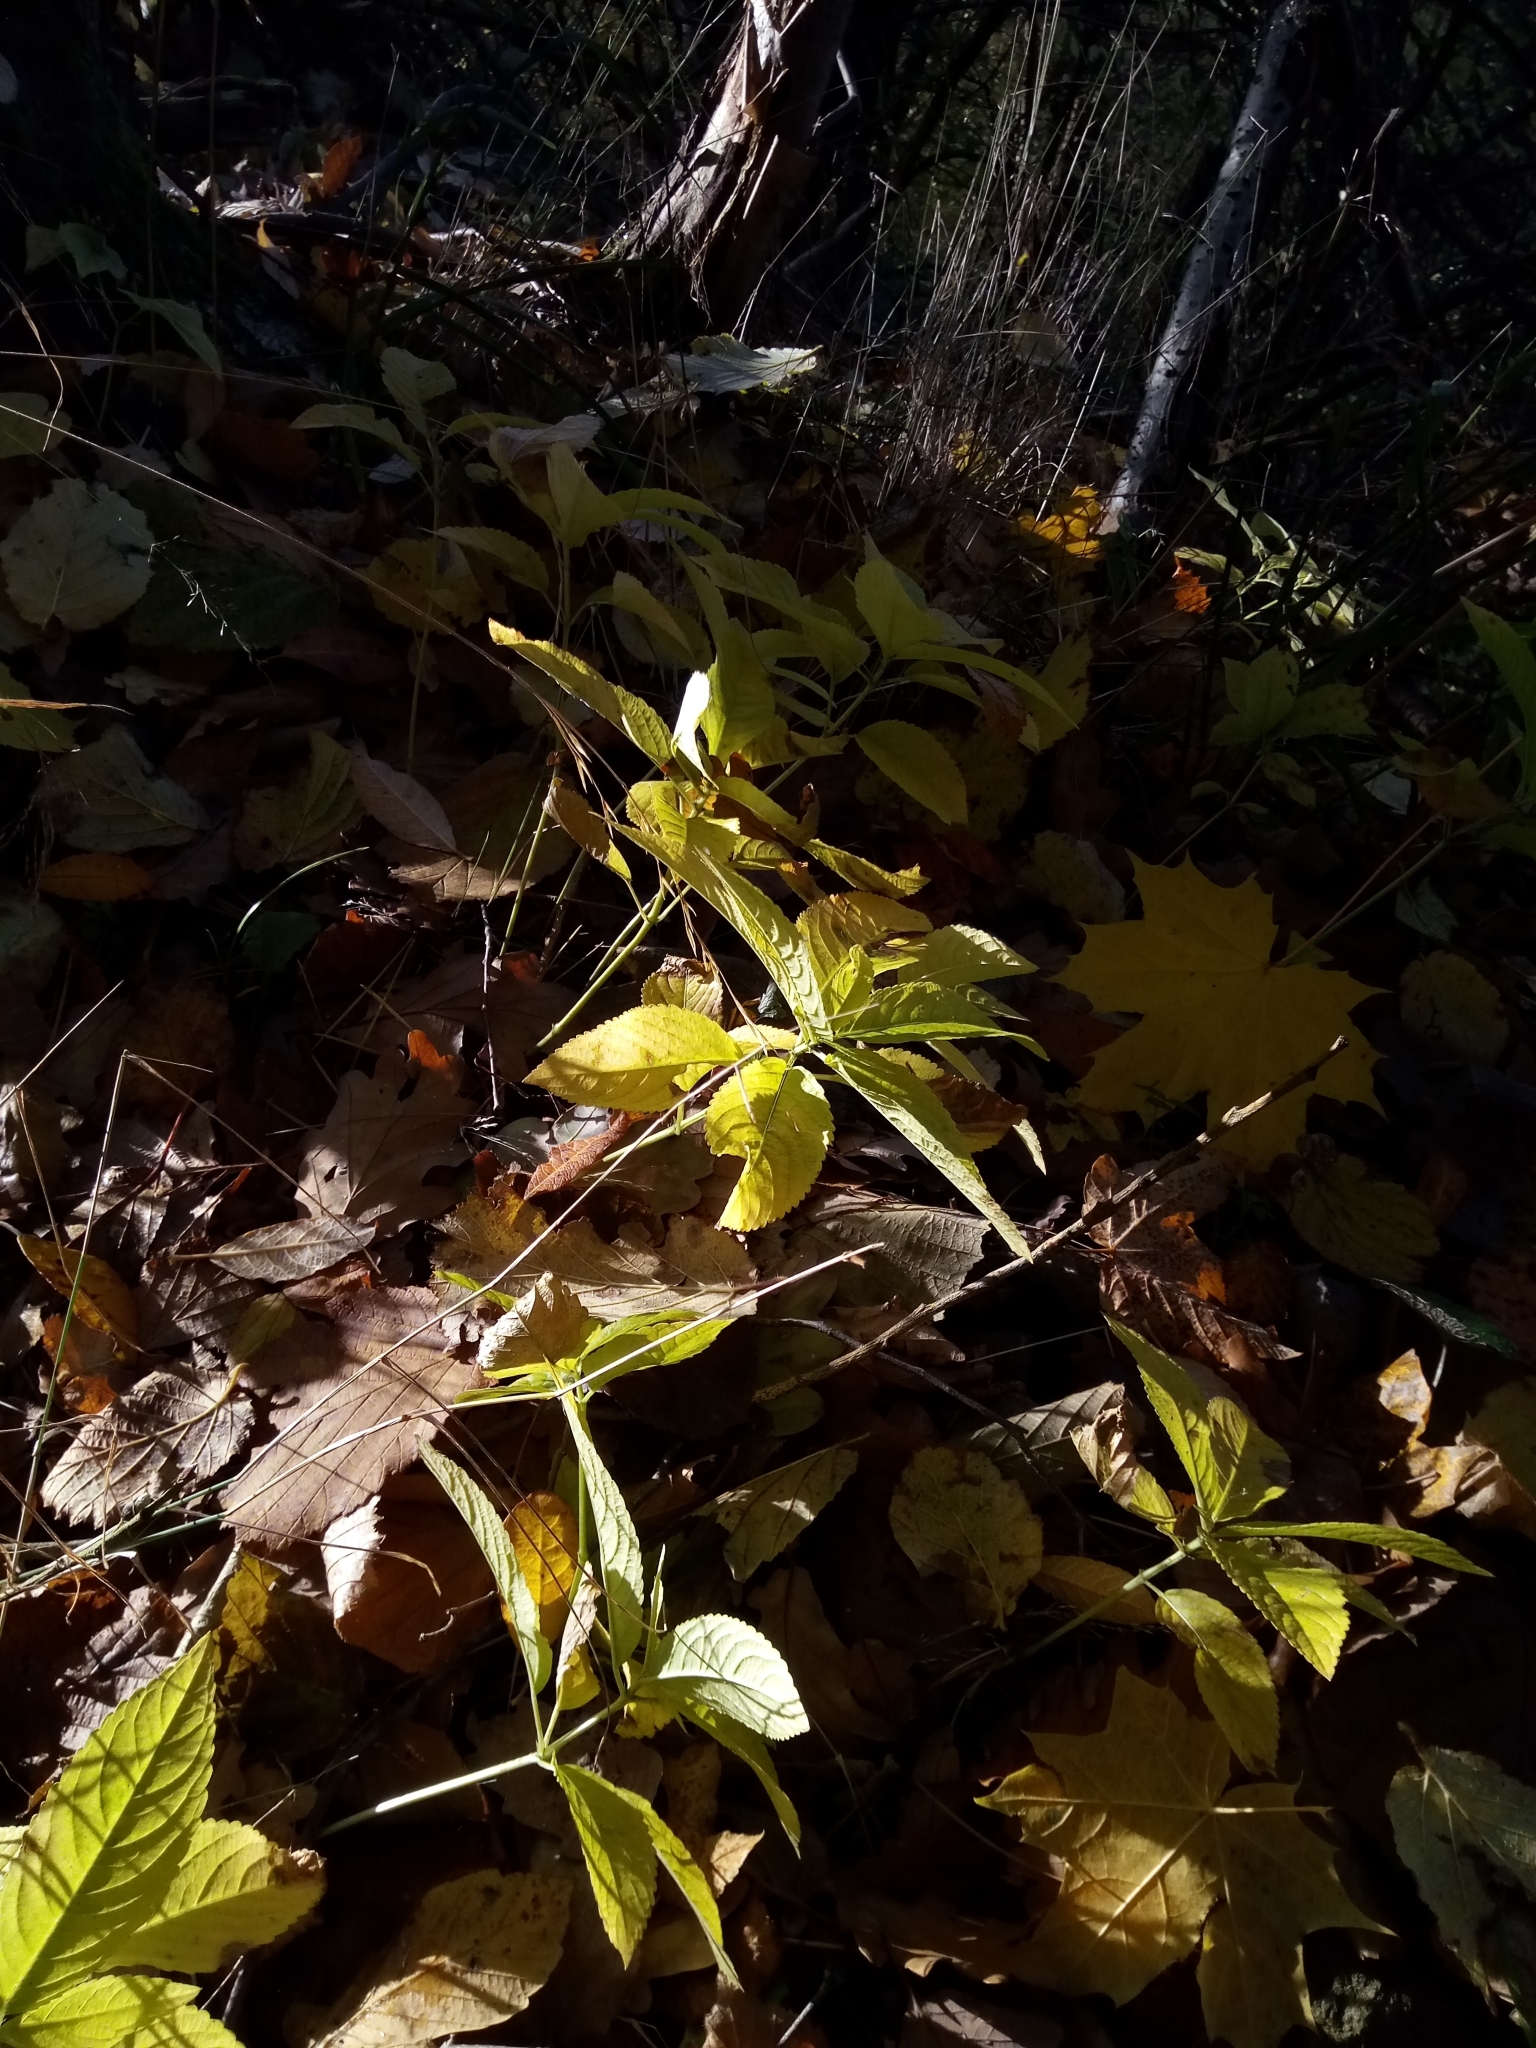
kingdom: Plantae
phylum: Tracheophyta
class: Magnoliopsida
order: Malpighiales
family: Euphorbiaceae
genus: Mercurialis
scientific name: Mercurialis perennis
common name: Dog mercury
